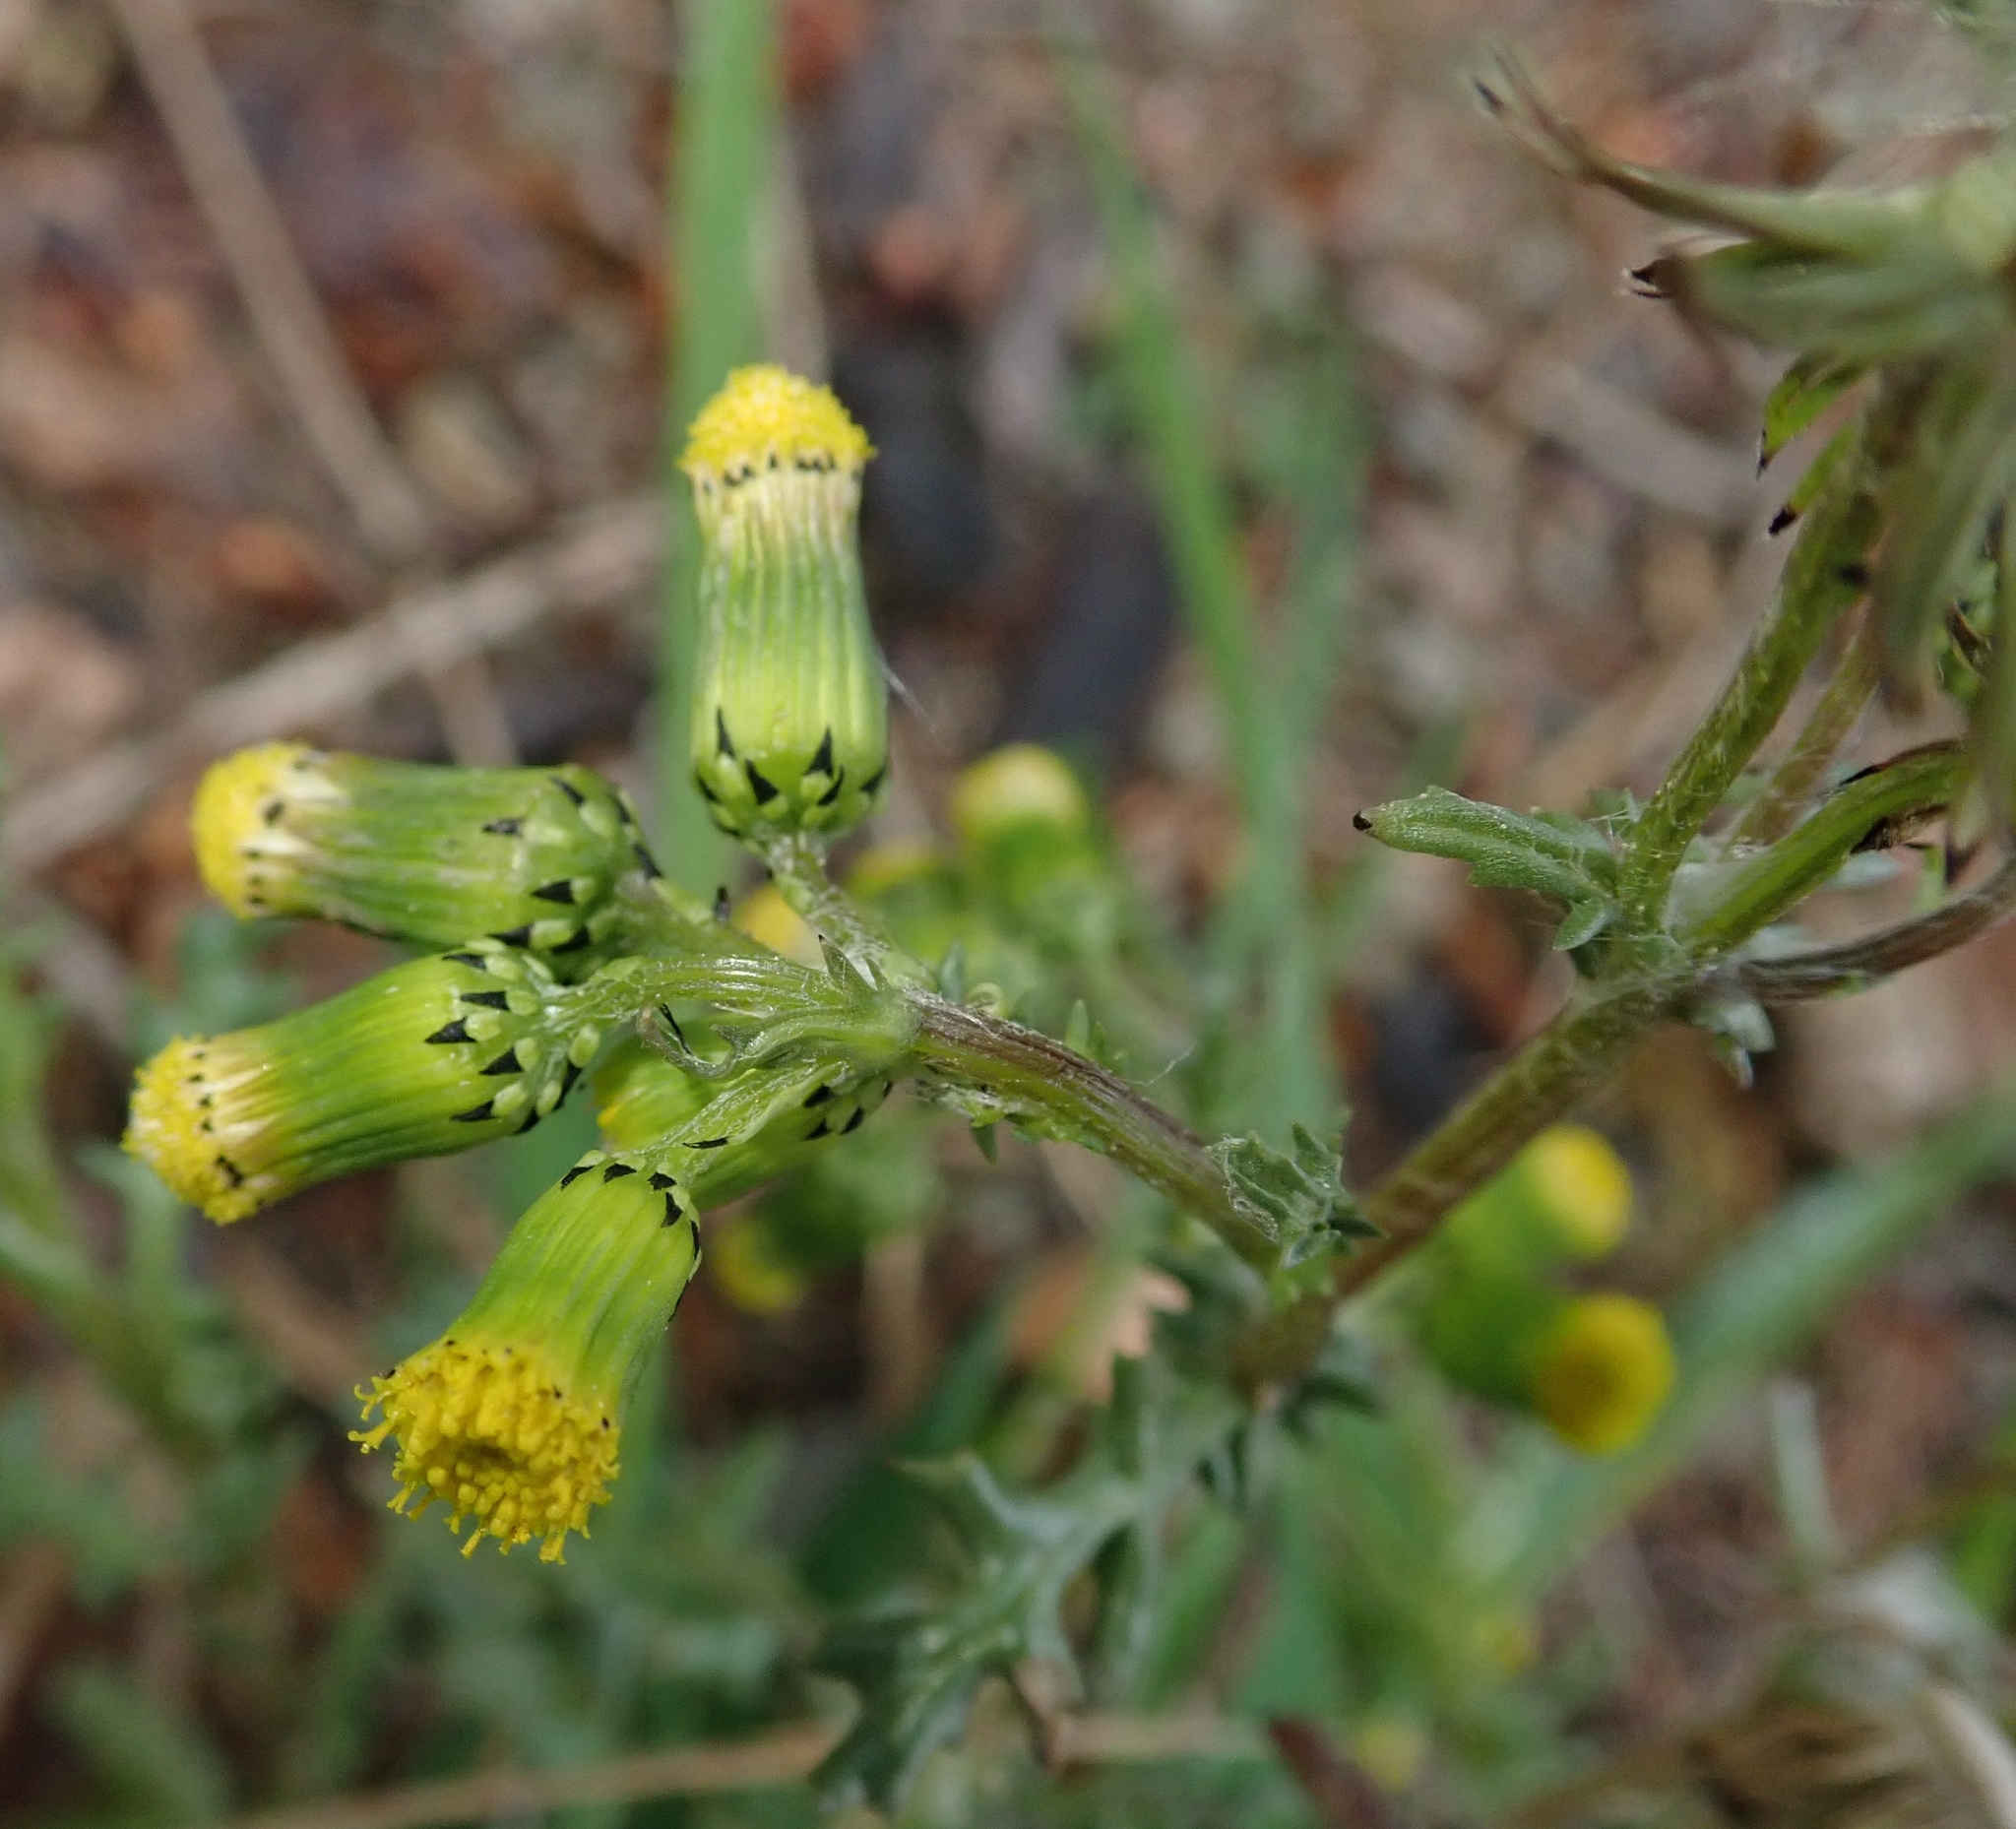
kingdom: Plantae
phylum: Tracheophyta
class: Magnoliopsida
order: Asterales
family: Asteraceae
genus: Senecio
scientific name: Senecio vulgaris
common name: Old-man-in-the-spring
